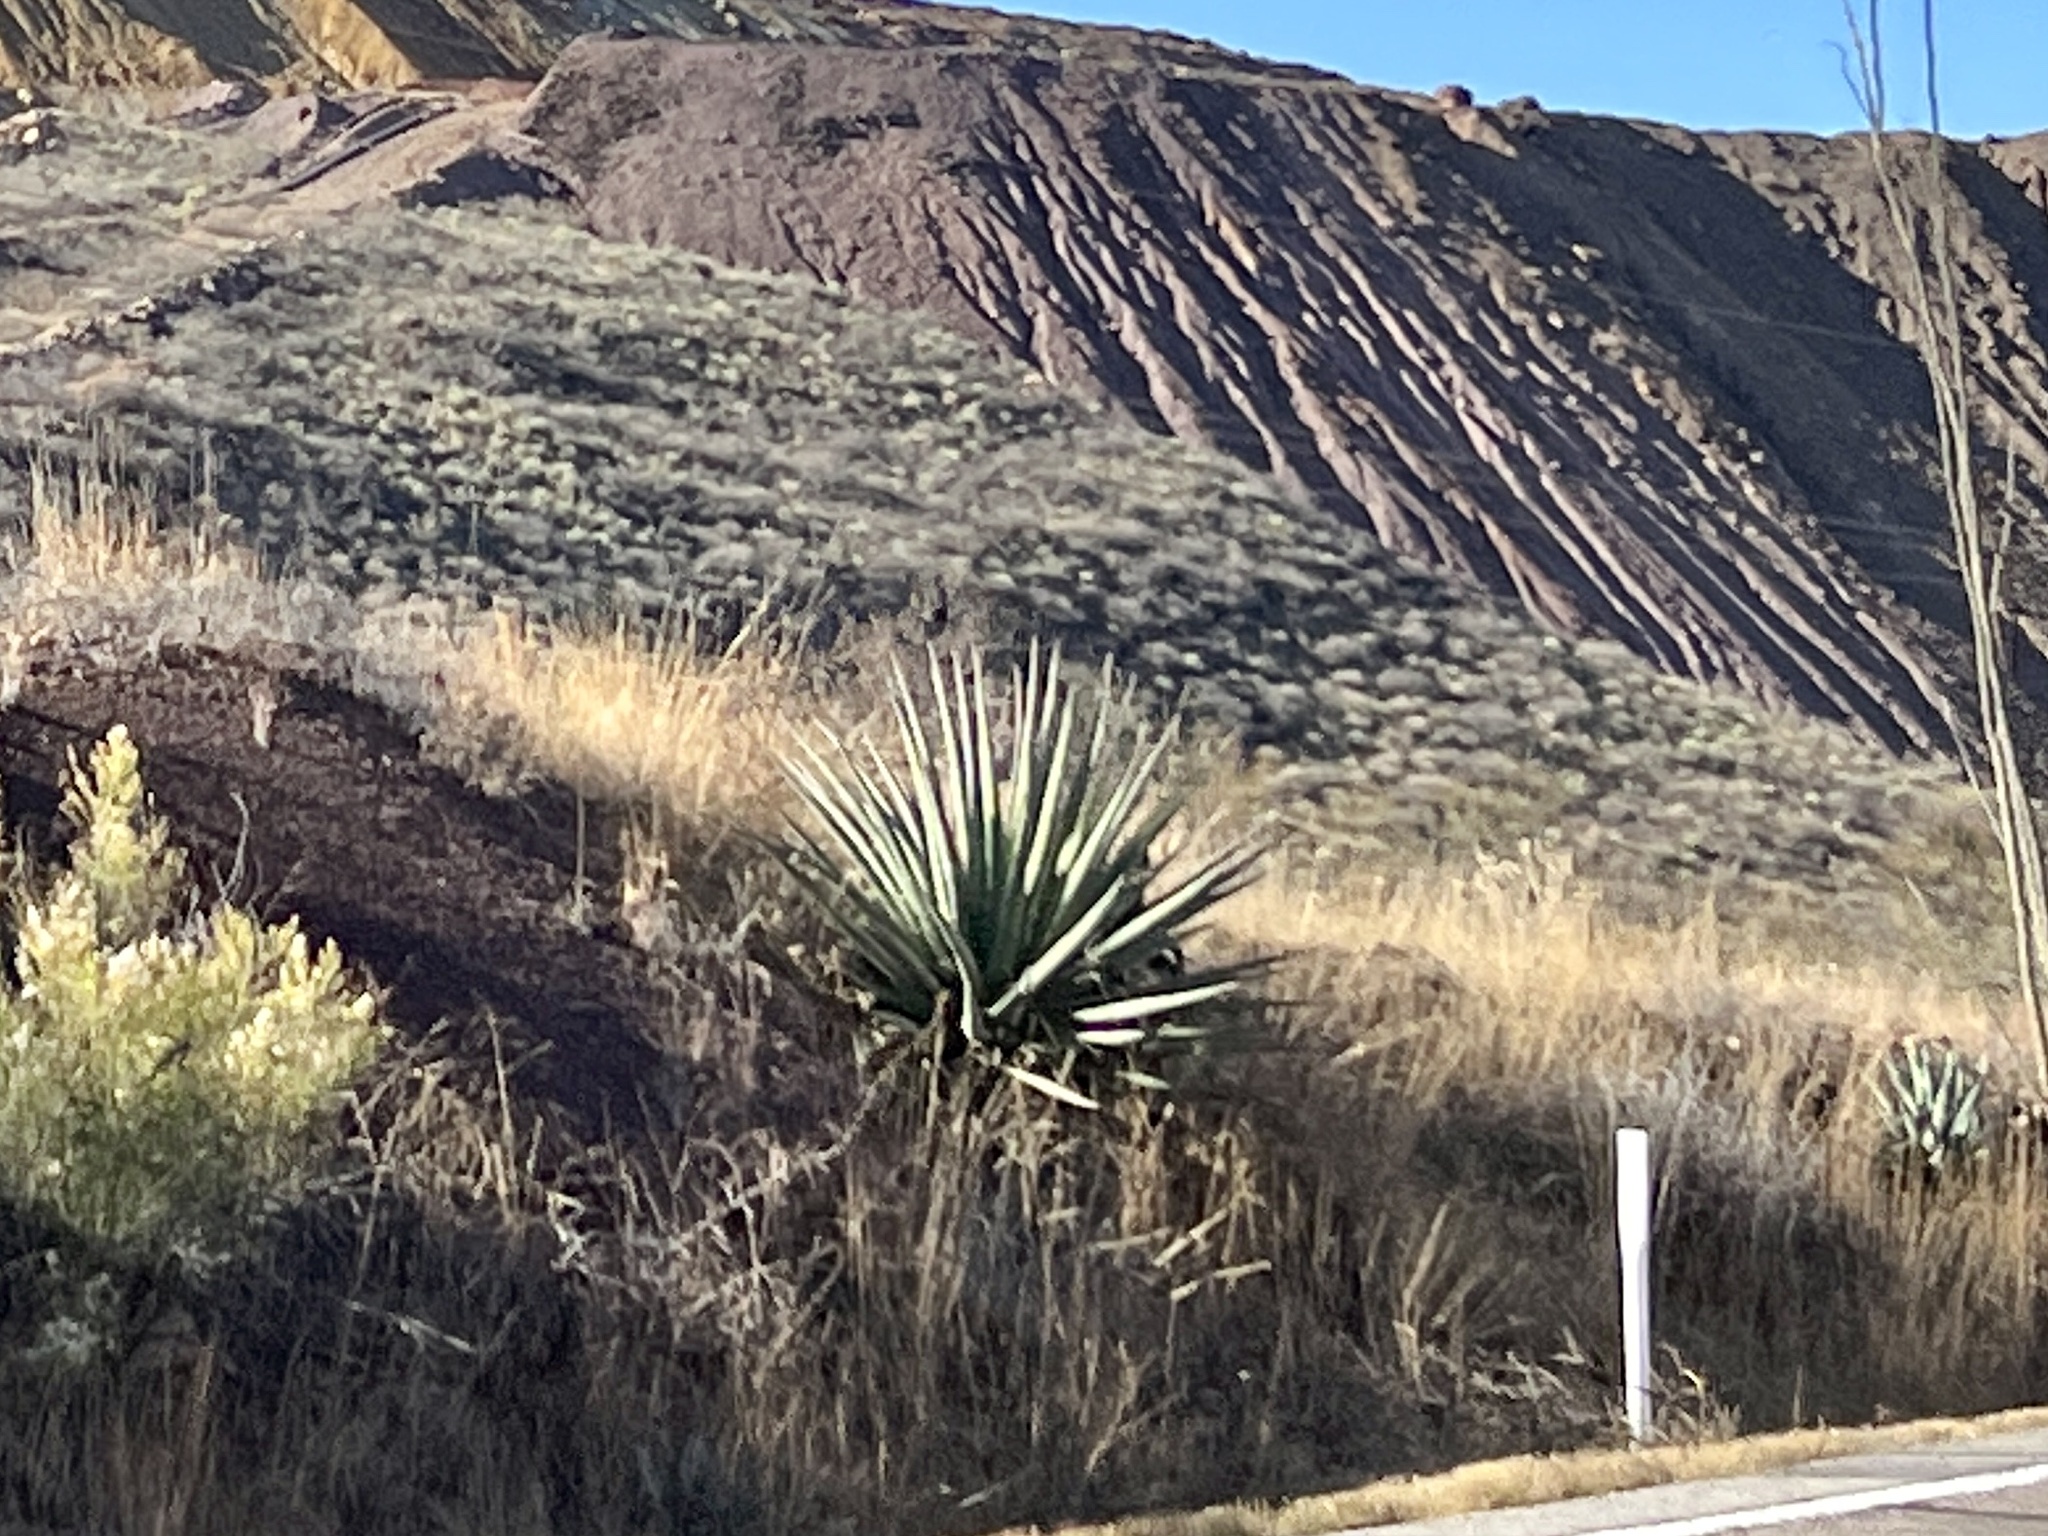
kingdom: Plantae
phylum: Tracheophyta
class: Liliopsida
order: Asparagales
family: Asparagaceae
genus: Agave
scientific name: Agave palmeri
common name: Palmer agave
